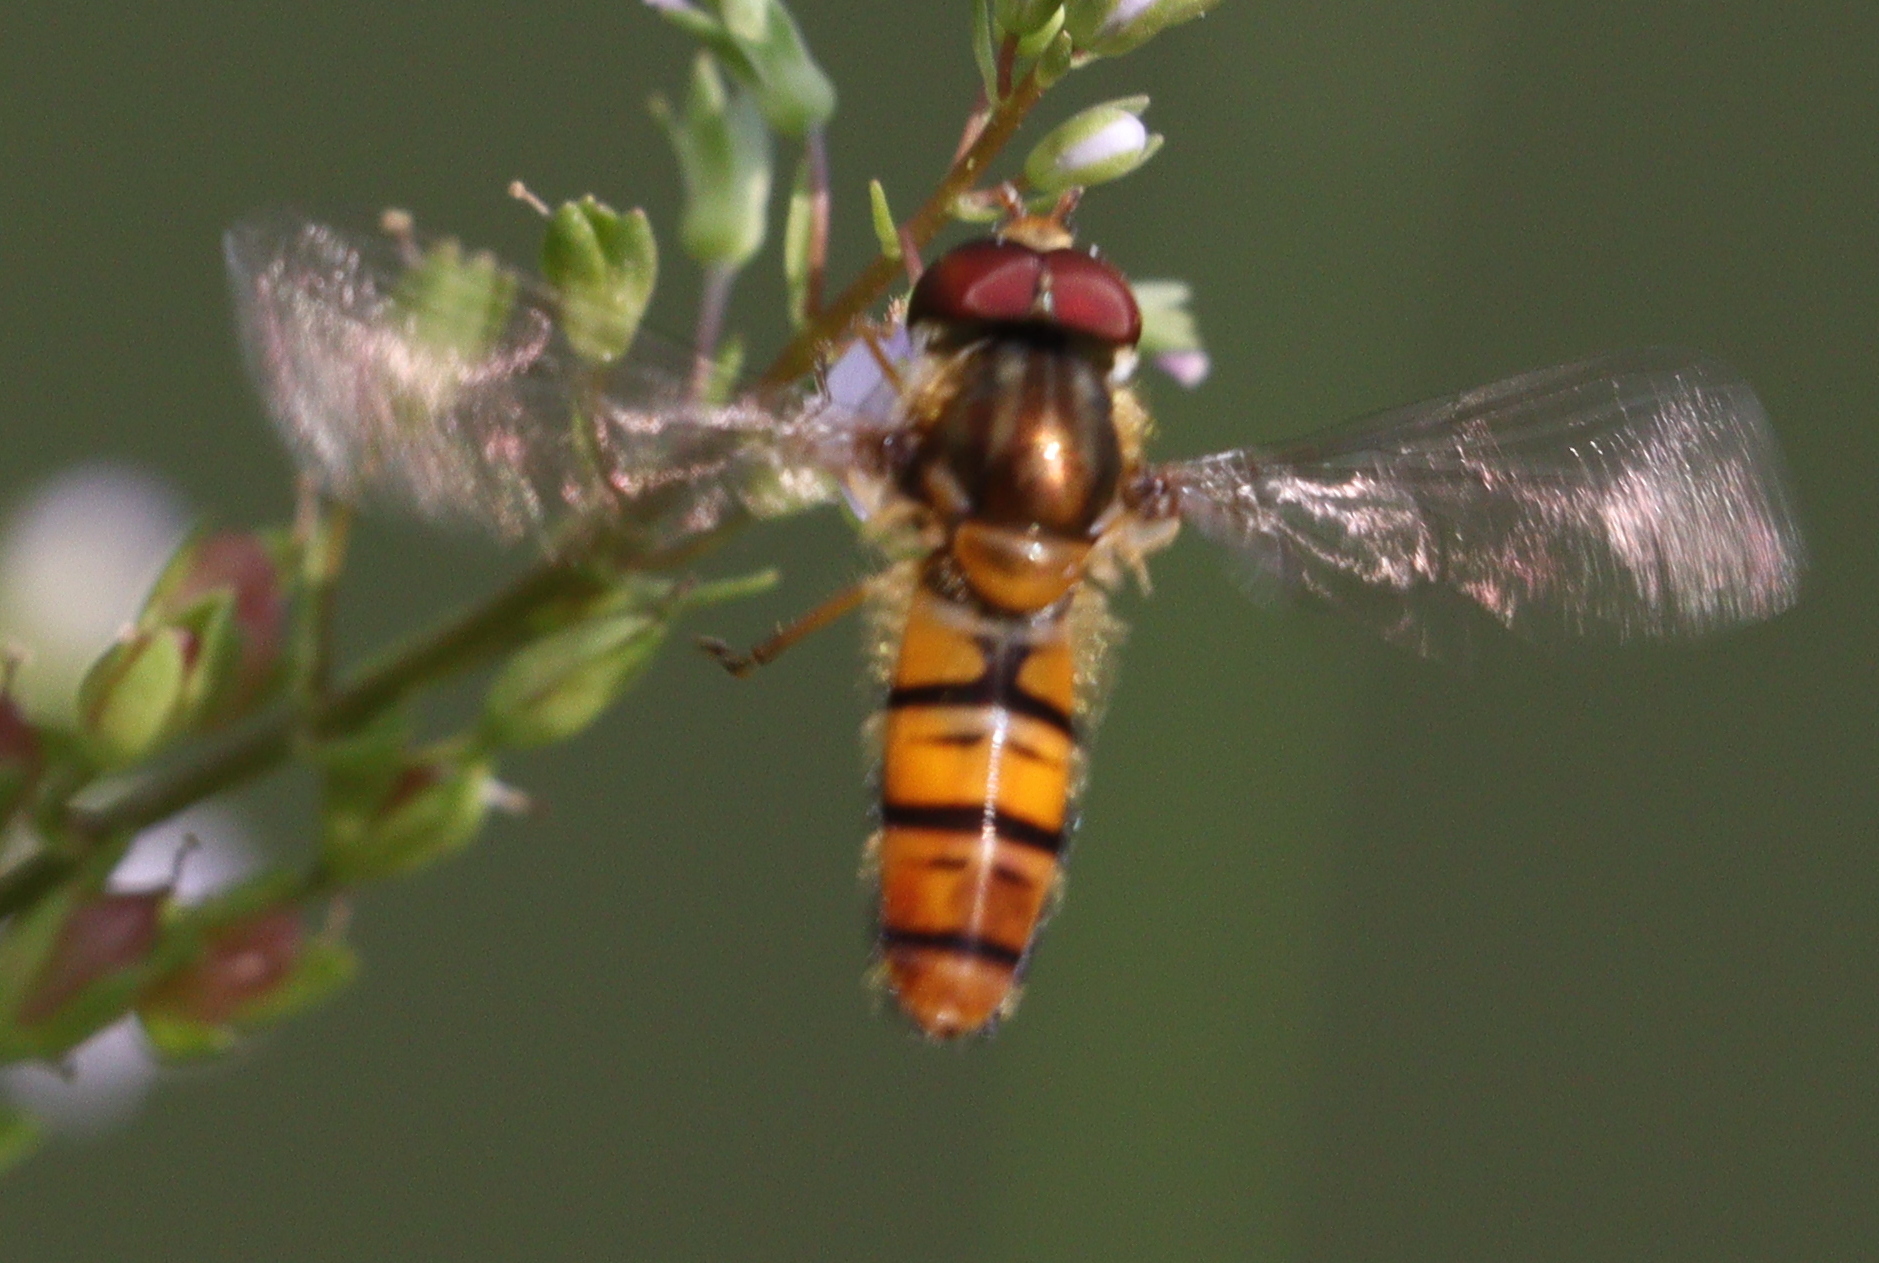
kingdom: Animalia
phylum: Arthropoda
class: Insecta
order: Diptera
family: Syrphidae
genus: Episyrphus
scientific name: Episyrphus balteatus
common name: Marmalade hoverfly
